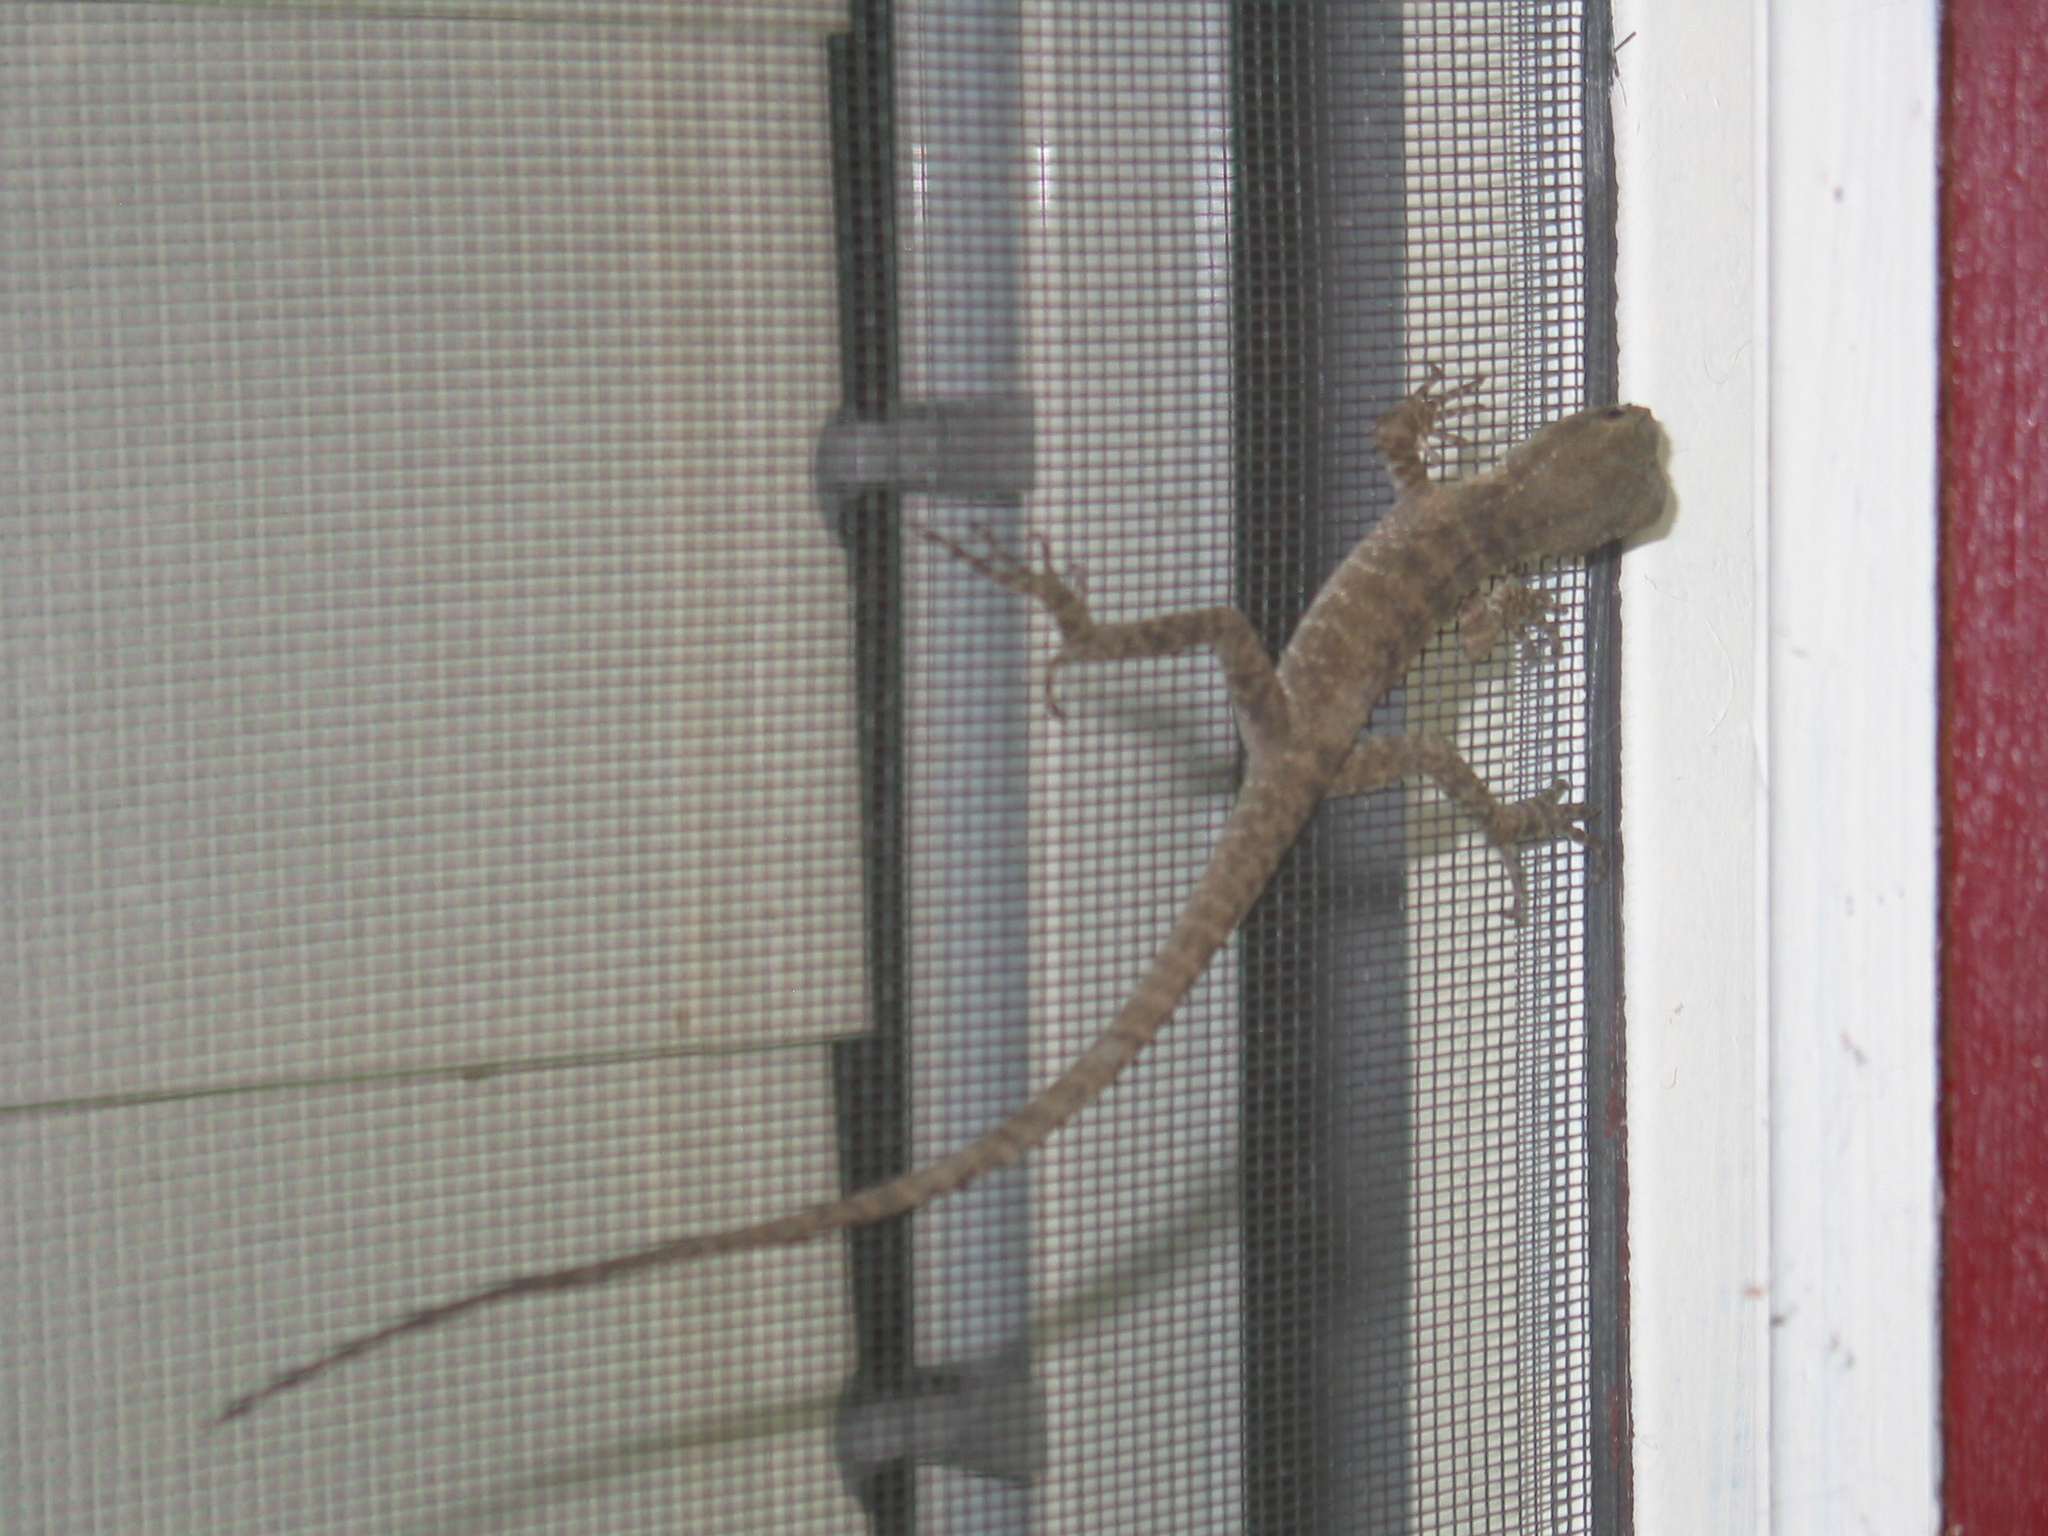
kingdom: Animalia
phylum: Chordata
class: Squamata
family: Agamidae
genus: Intellagama
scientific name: Intellagama lesueurii
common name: Eastern water dragon
